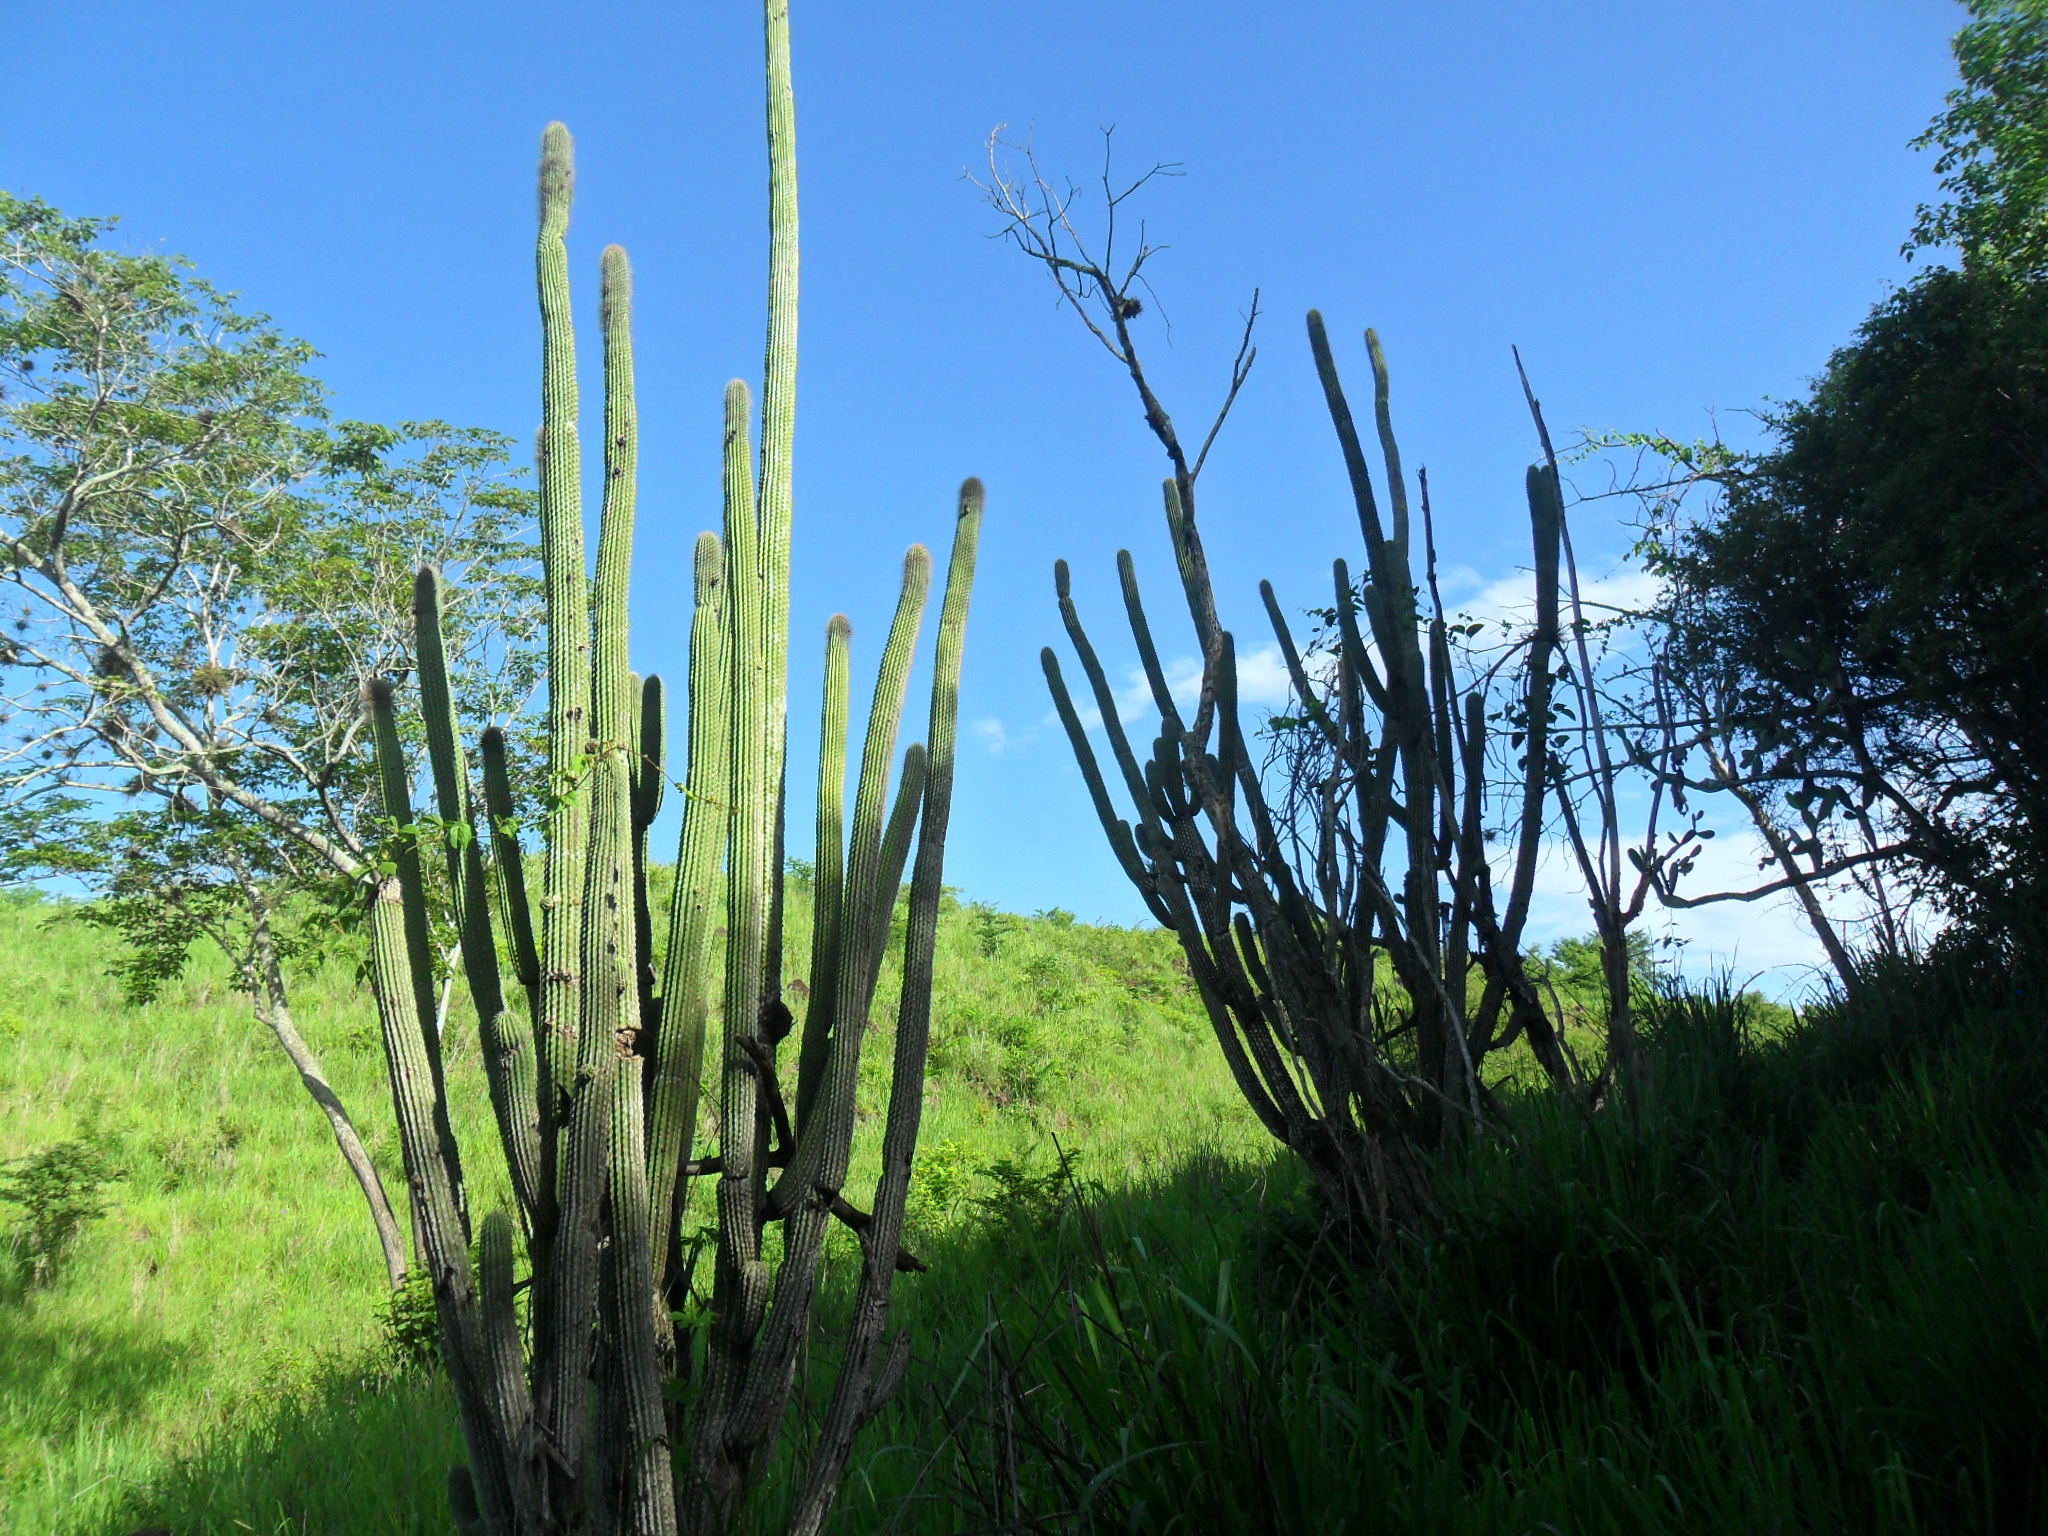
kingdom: Plantae
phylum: Tracheophyta
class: Magnoliopsida
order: Caryophyllales
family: Cactaceae
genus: Cephalocereus
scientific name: Cephalocereus scoparius
